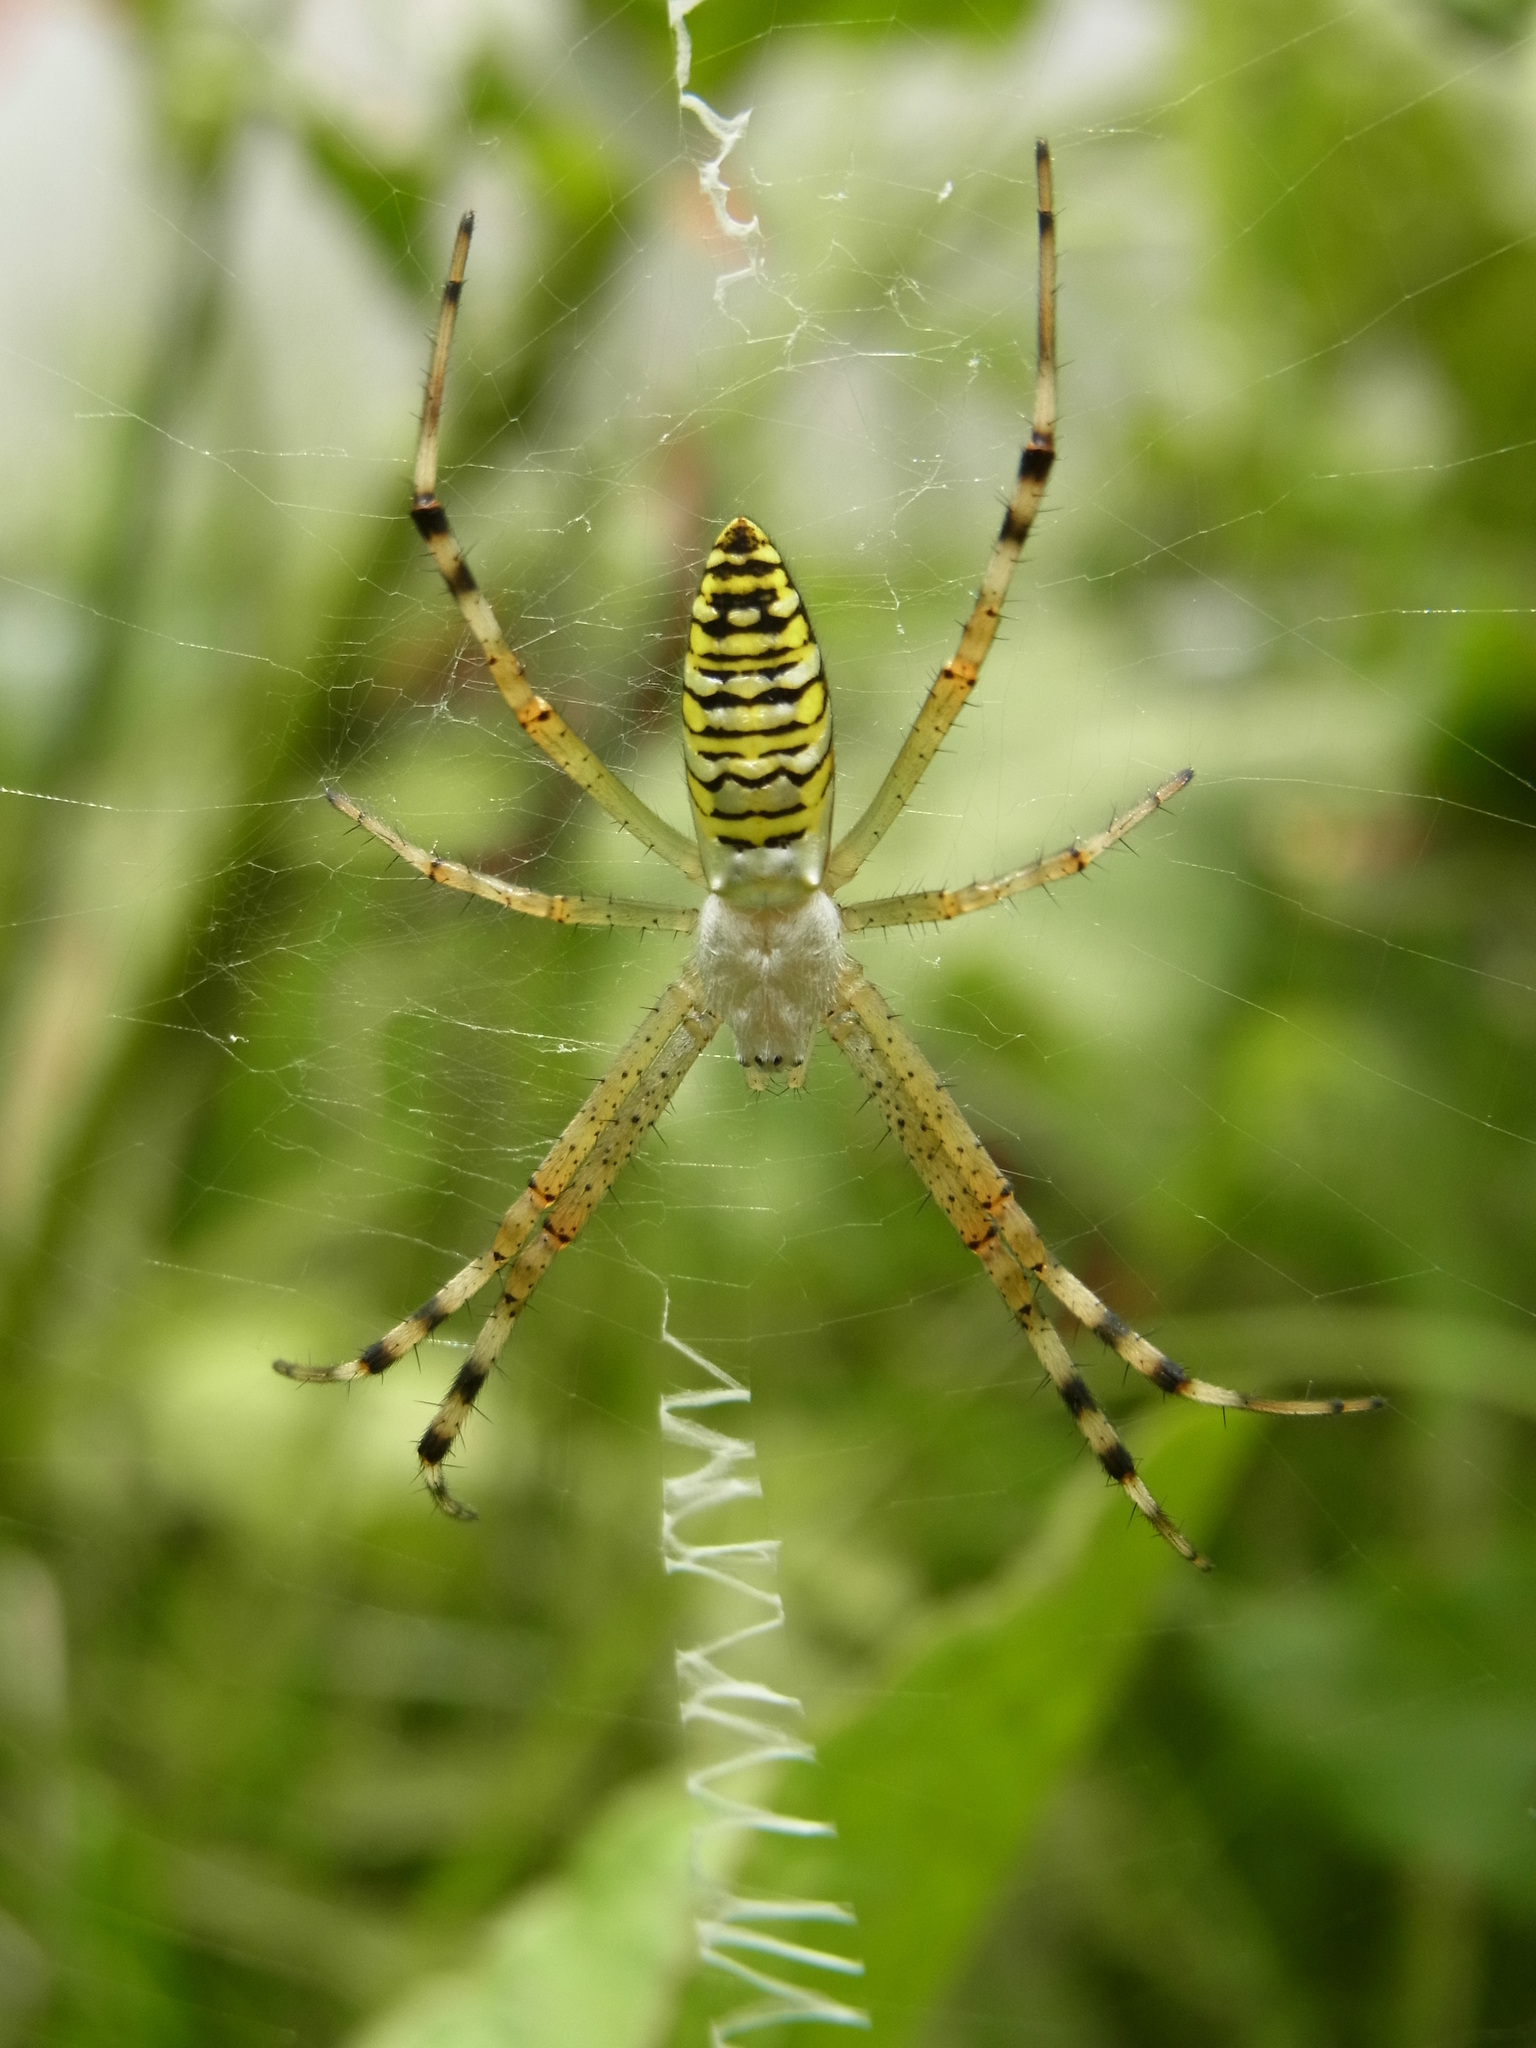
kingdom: Animalia
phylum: Arthropoda
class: Arachnida
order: Araneae
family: Araneidae
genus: Argiope
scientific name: Argiope bruennichi
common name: Wasp spider
